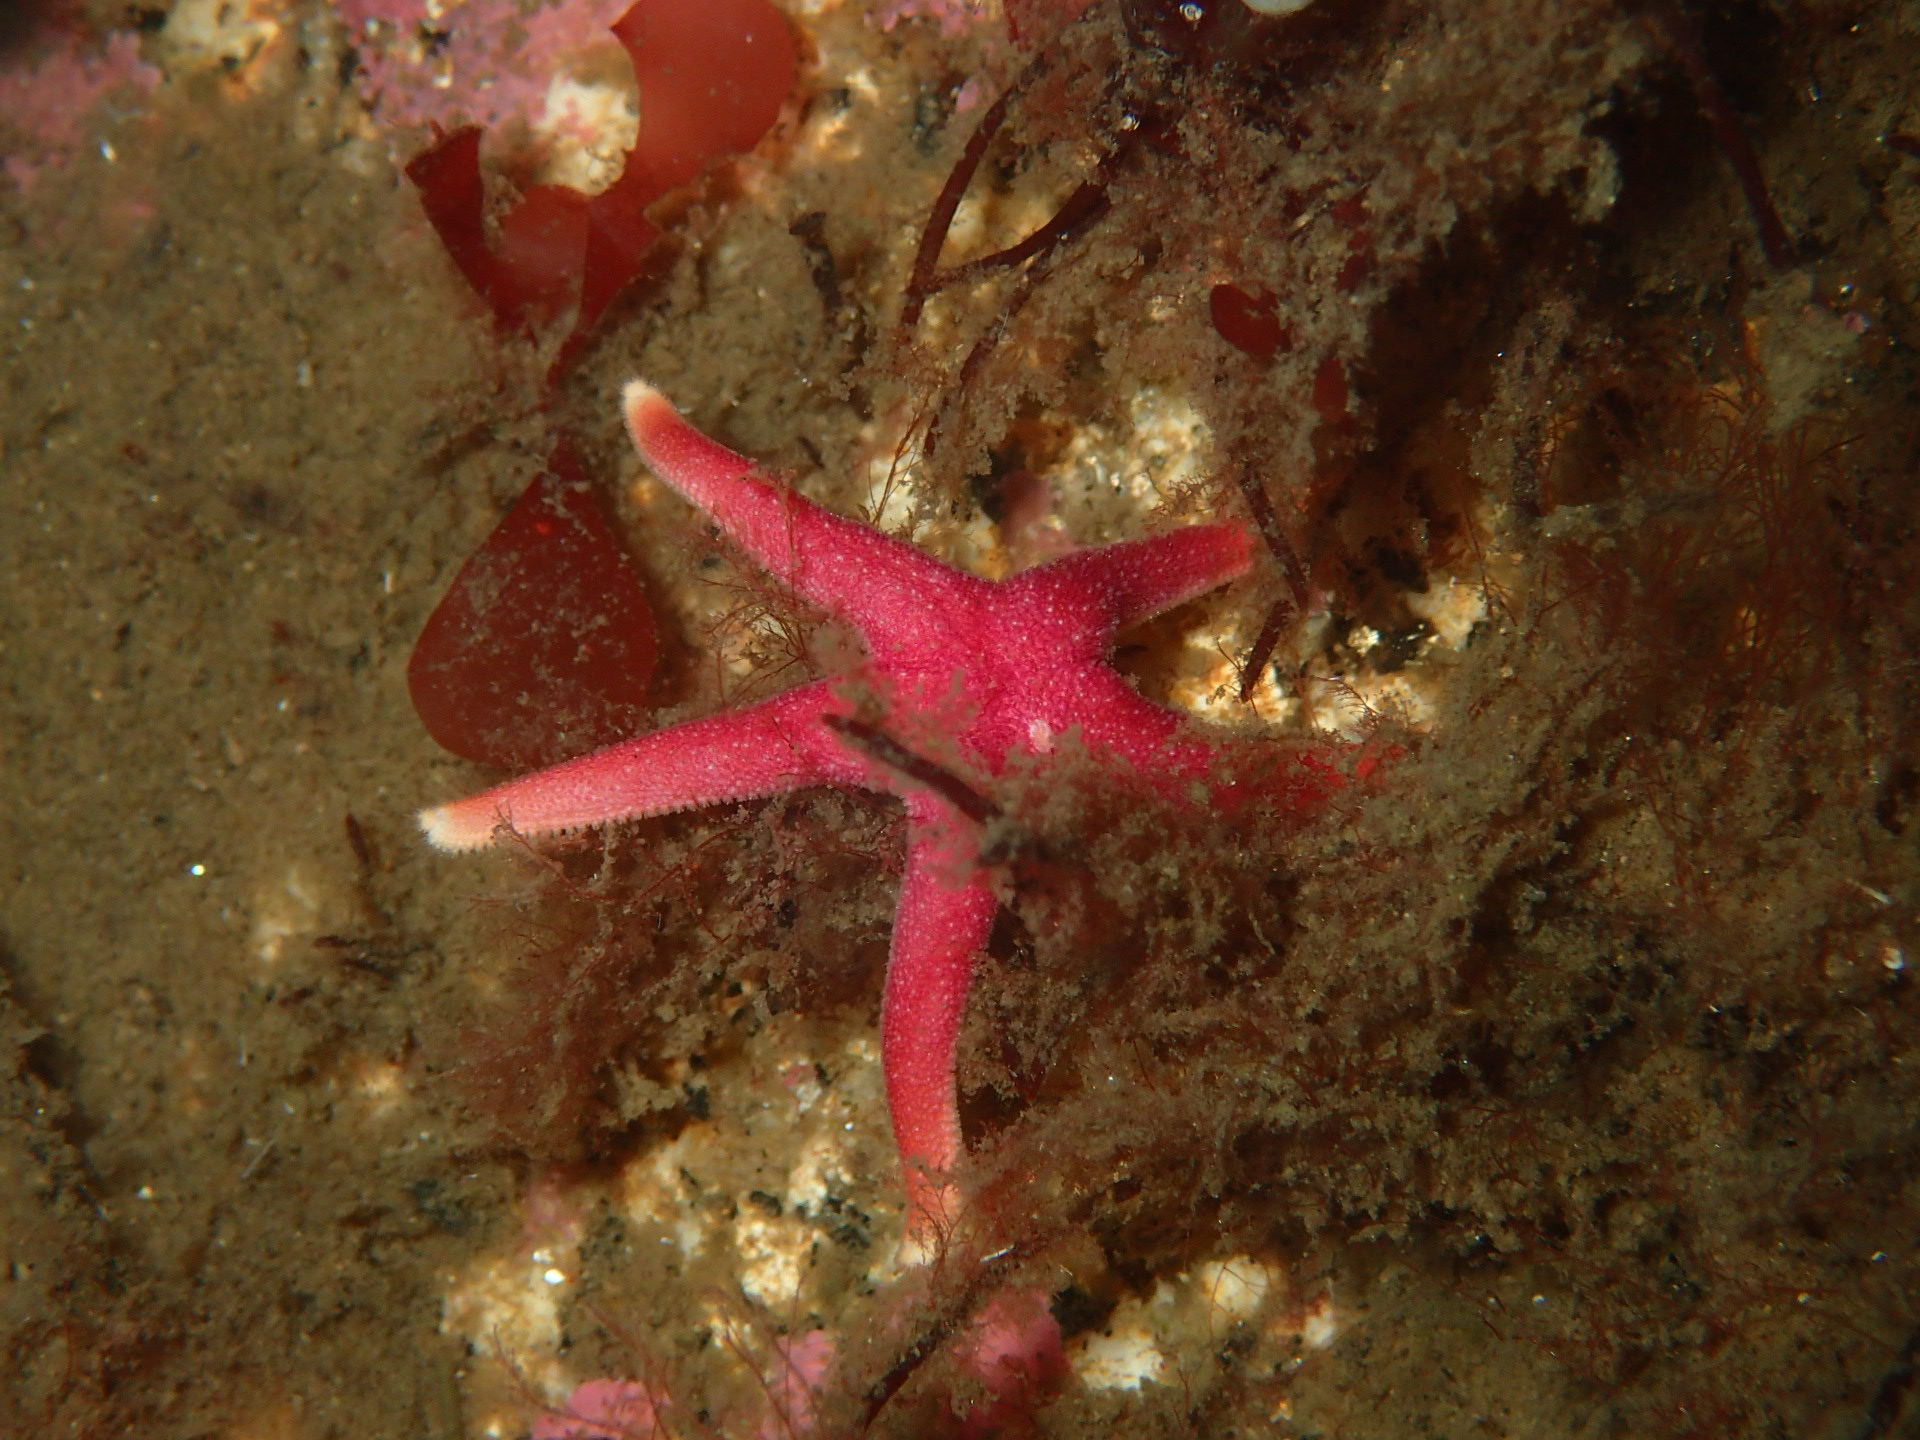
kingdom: Animalia
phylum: Echinodermata
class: Asteroidea
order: Spinulosida
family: Echinasteridae
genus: Henricia
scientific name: Henricia sanguinolenta
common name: Blood star
